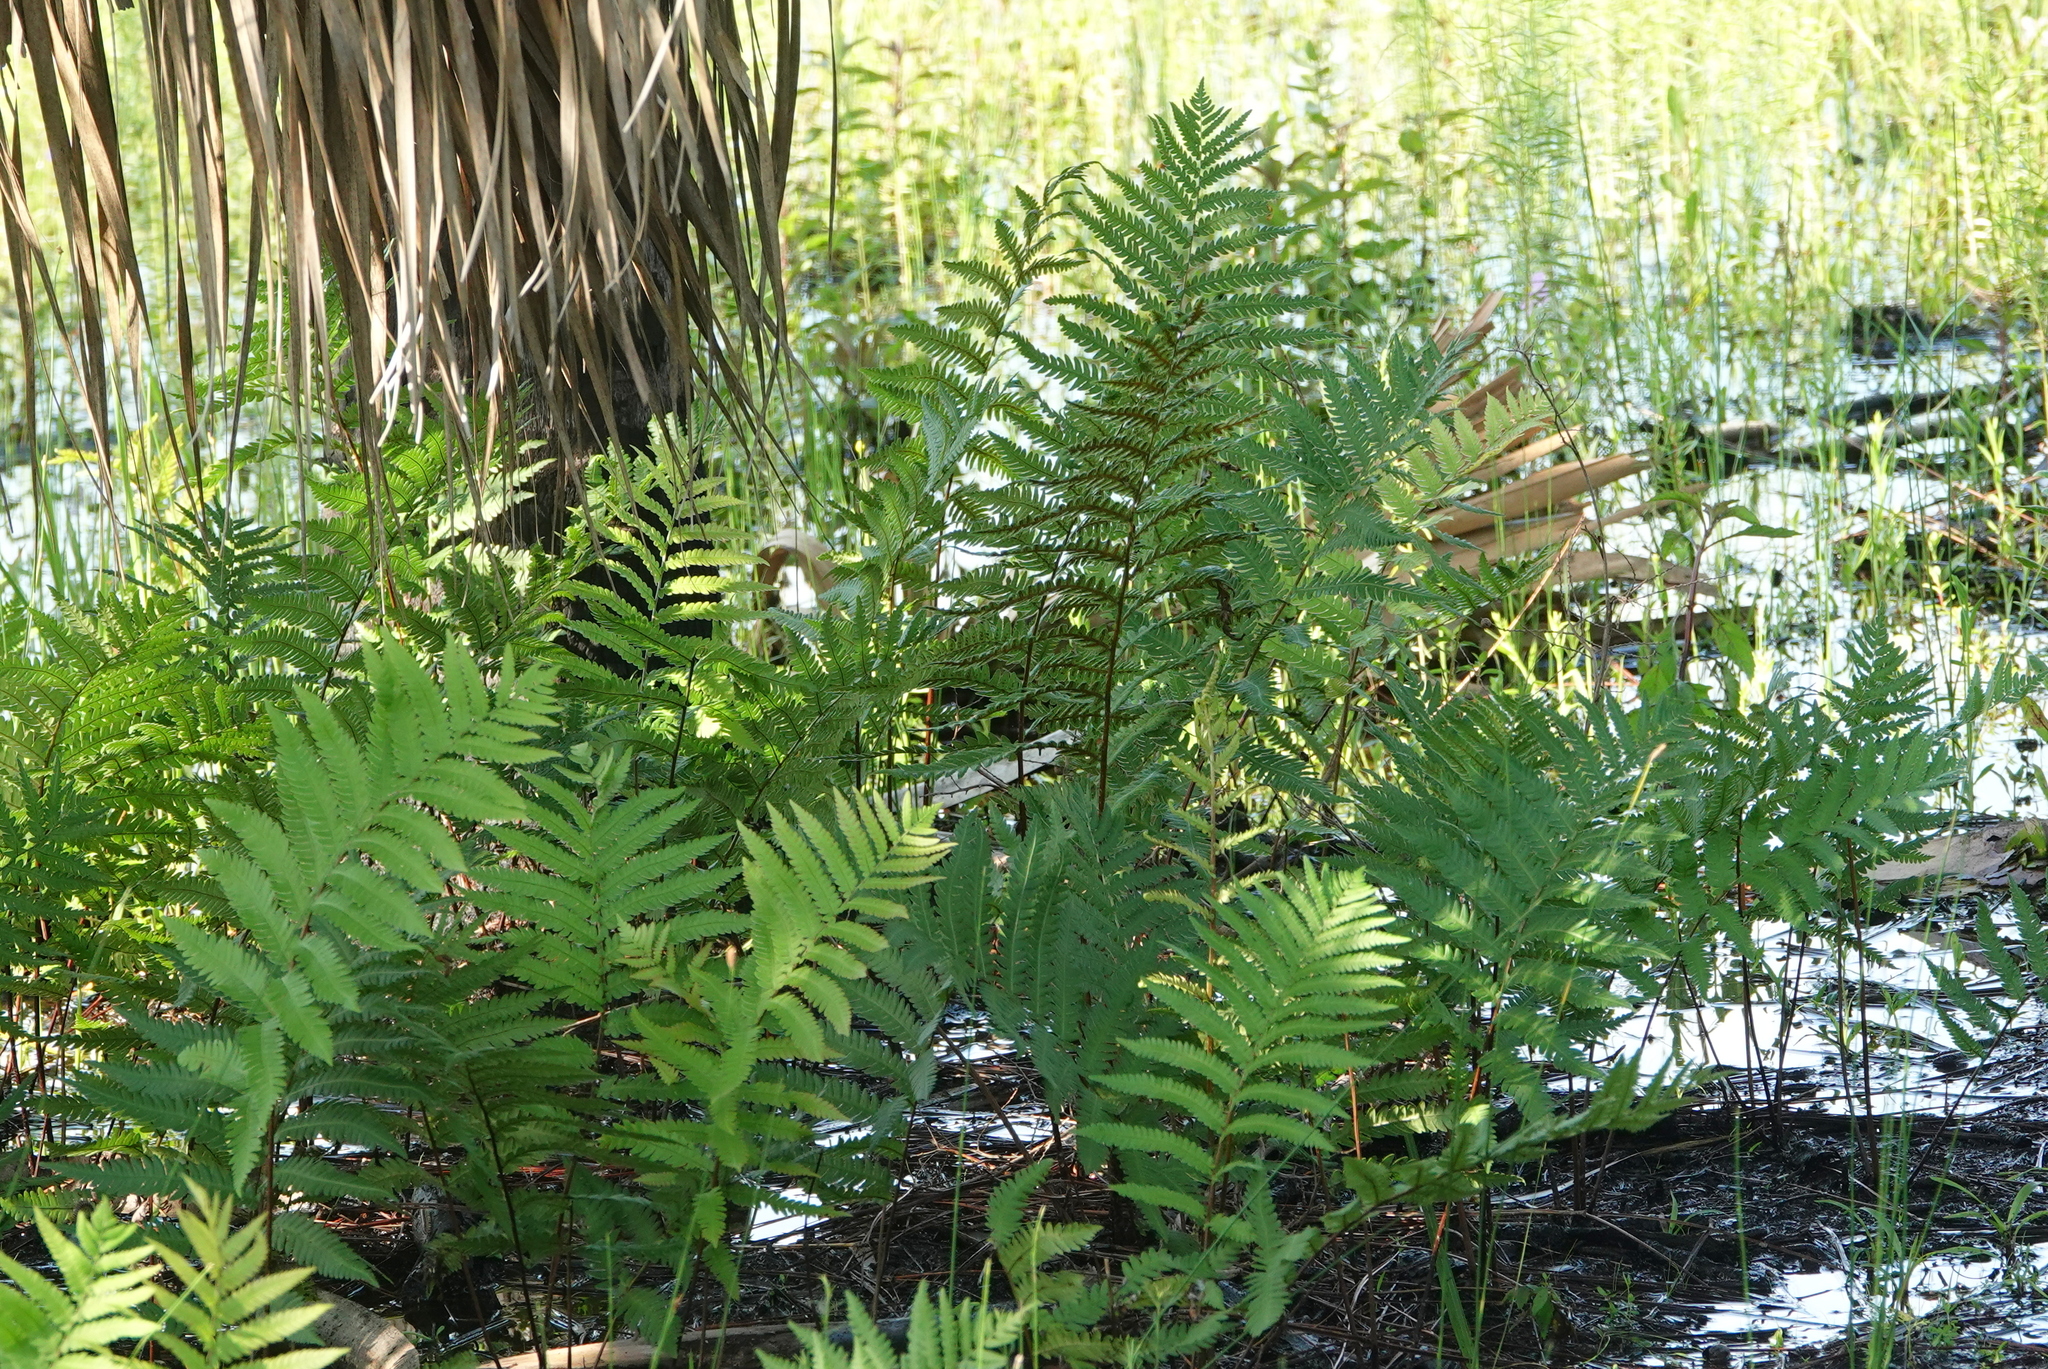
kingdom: Plantae
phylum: Tracheophyta
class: Polypodiopsida
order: Polypodiales
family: Blechnaceae
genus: Anchistea
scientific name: Anchistea virginica
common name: Virginia chain fern
